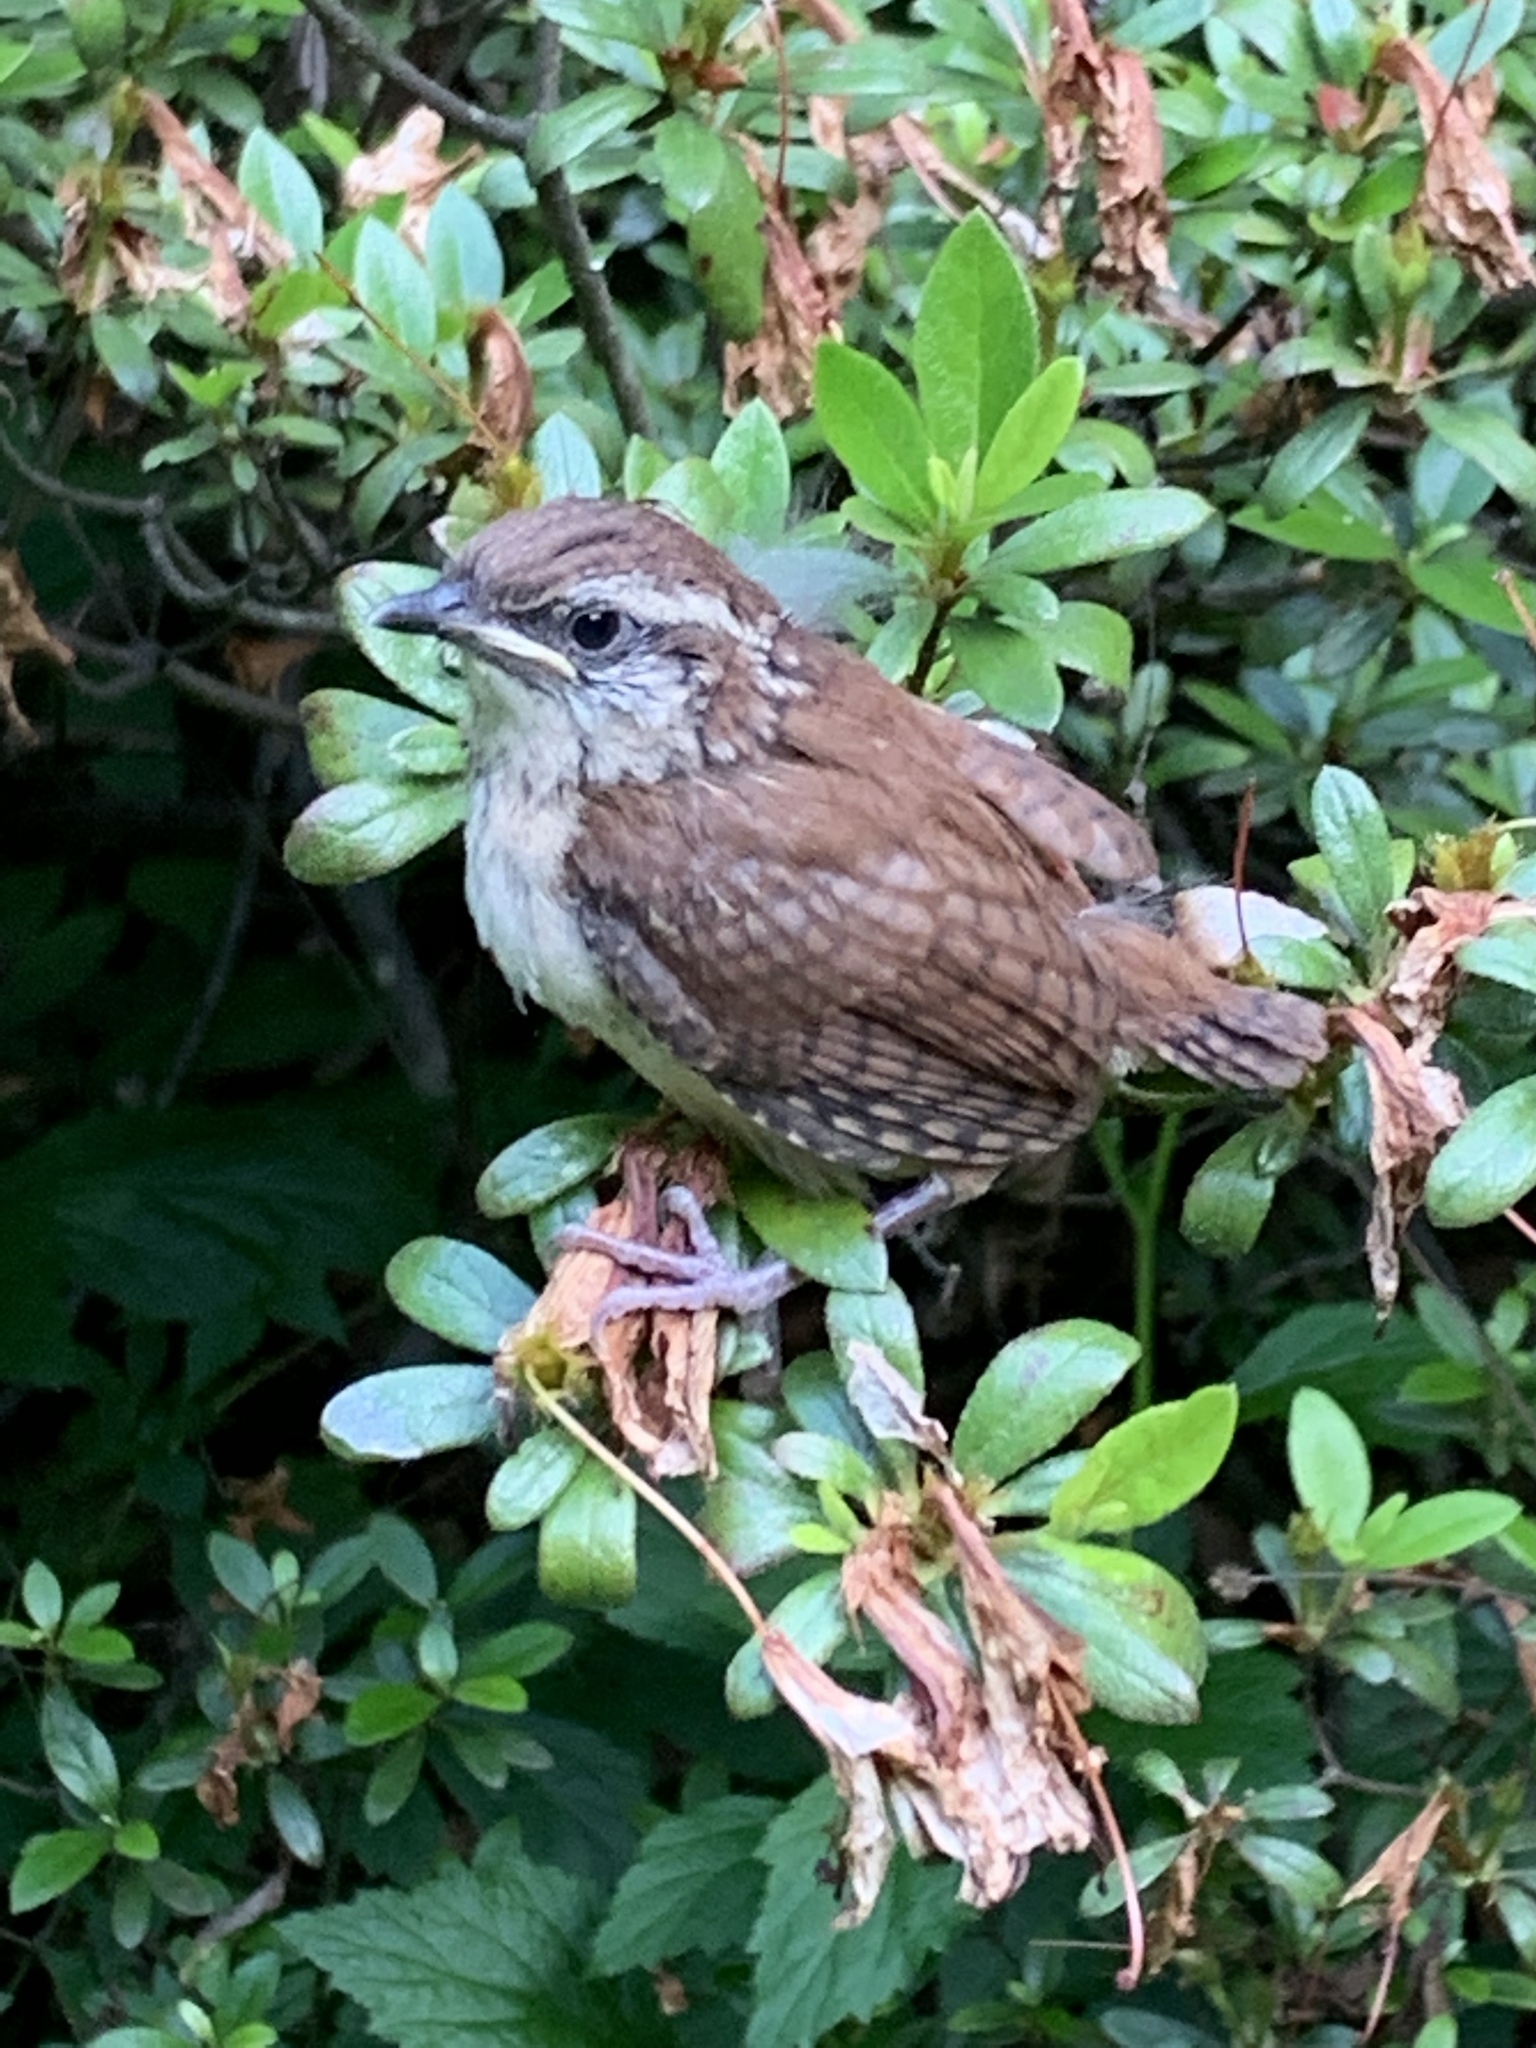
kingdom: Animalia
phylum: Chordata
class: Aves
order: Passeriformes
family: Troglodytidae
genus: Thryothorus
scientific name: Thryothorus ludovicianus
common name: Carolina wren
